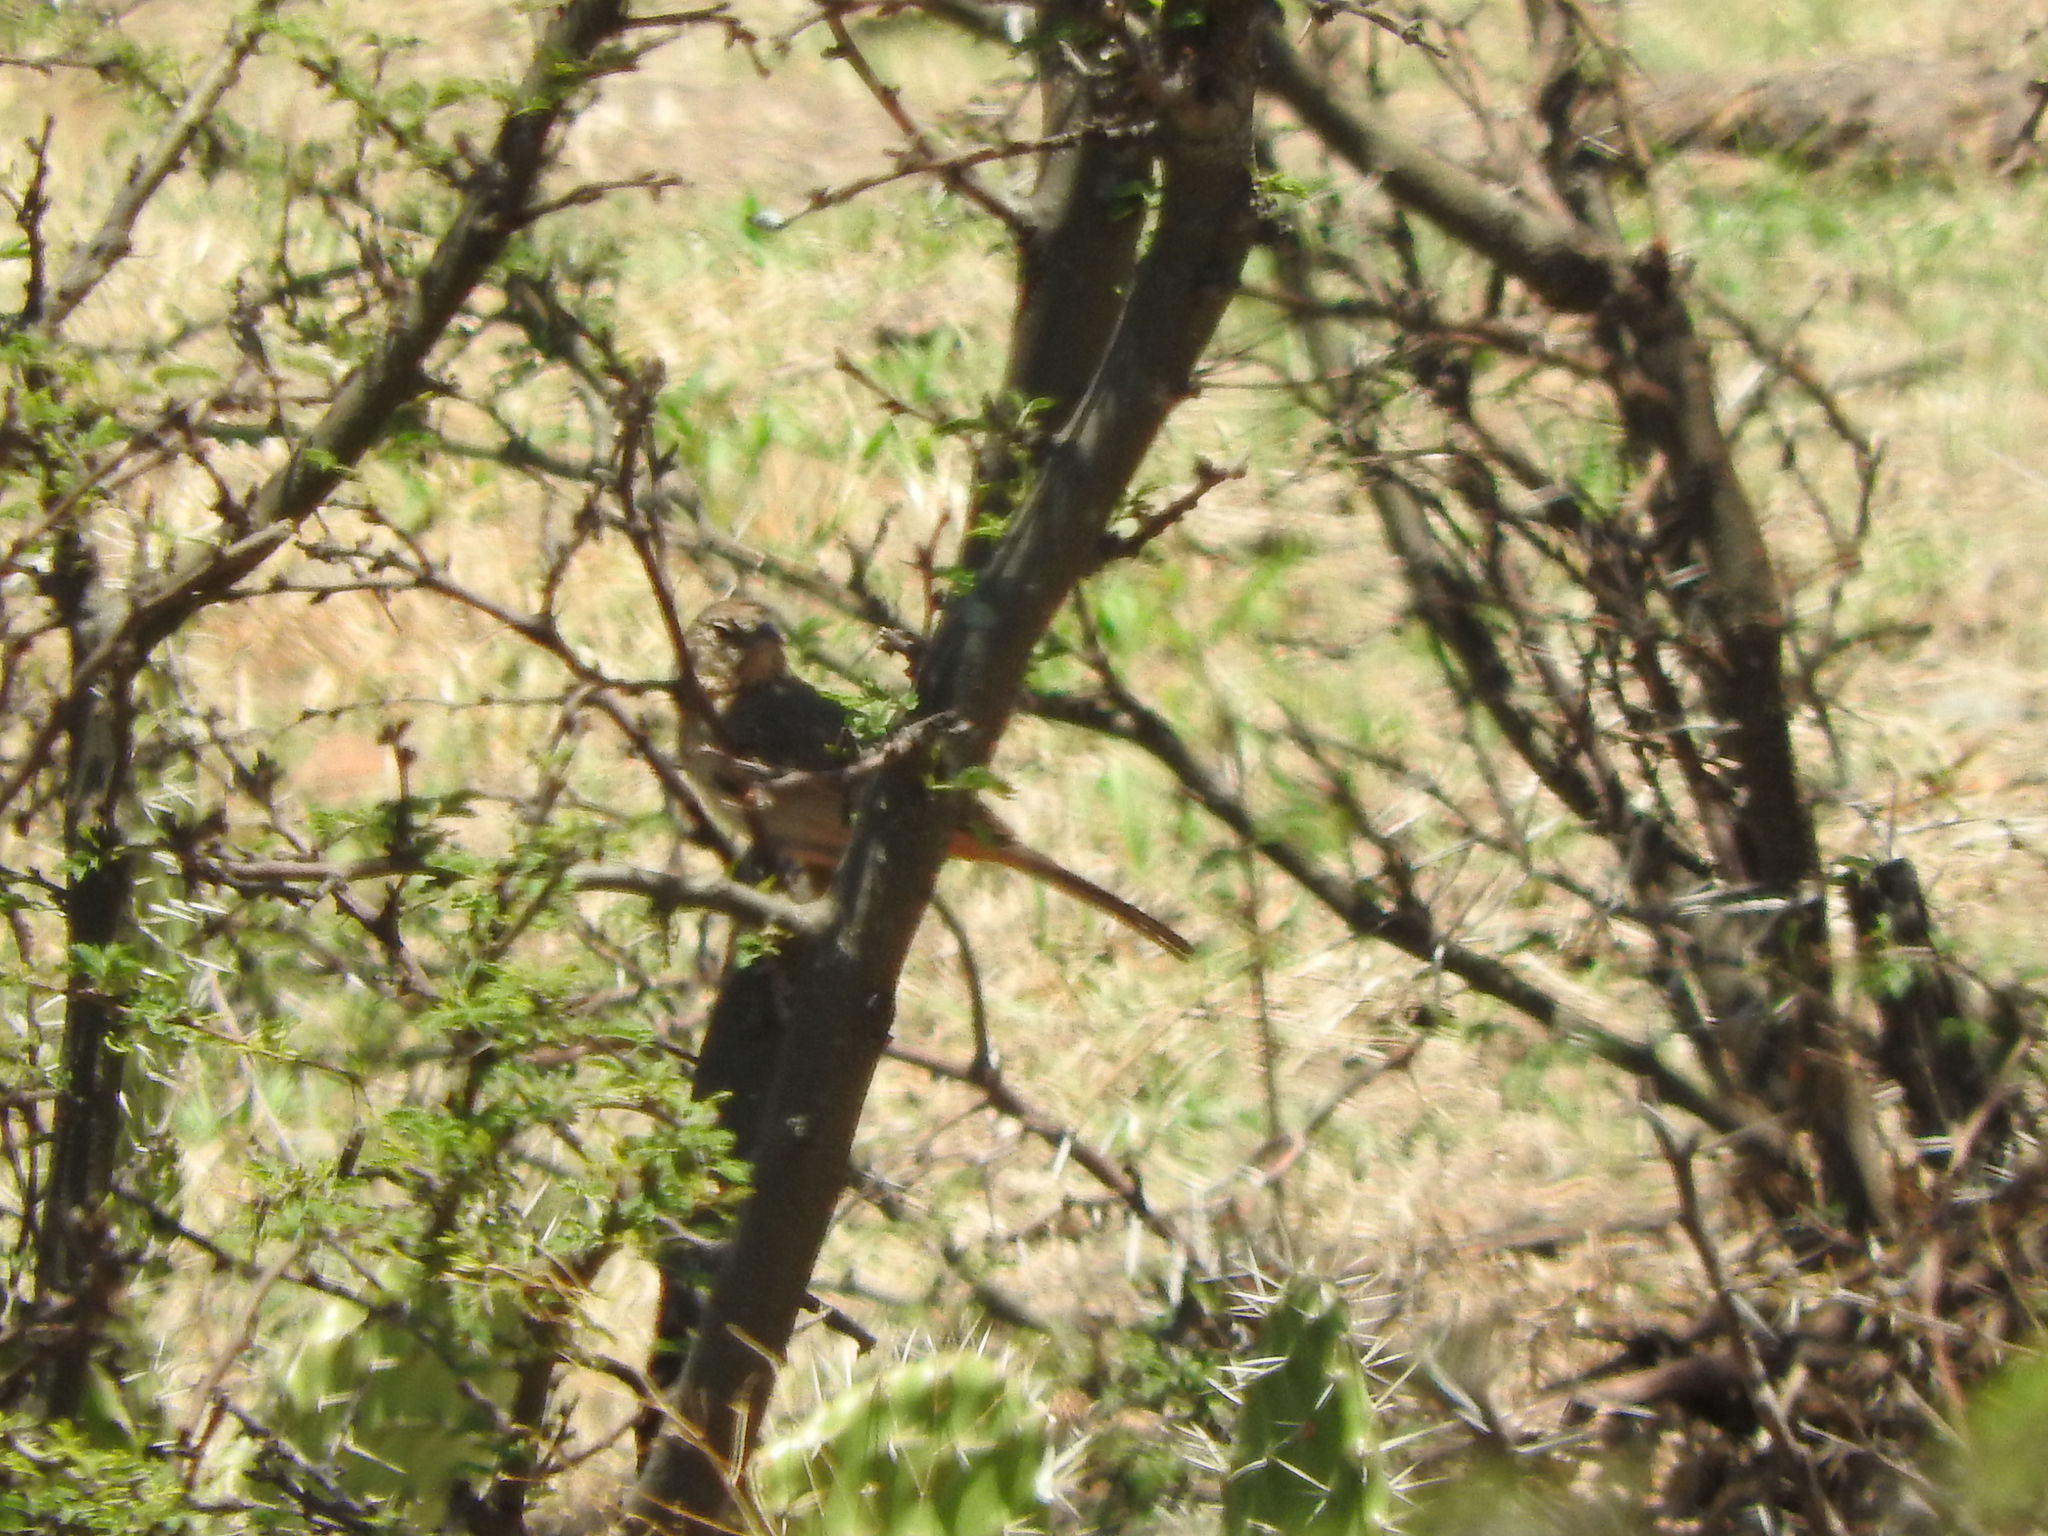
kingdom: Animalia
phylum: Chordata
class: Aves
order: Passeriformes
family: Passerellidae
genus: Melozone
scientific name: Melozone fusca
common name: Canyon towhee
